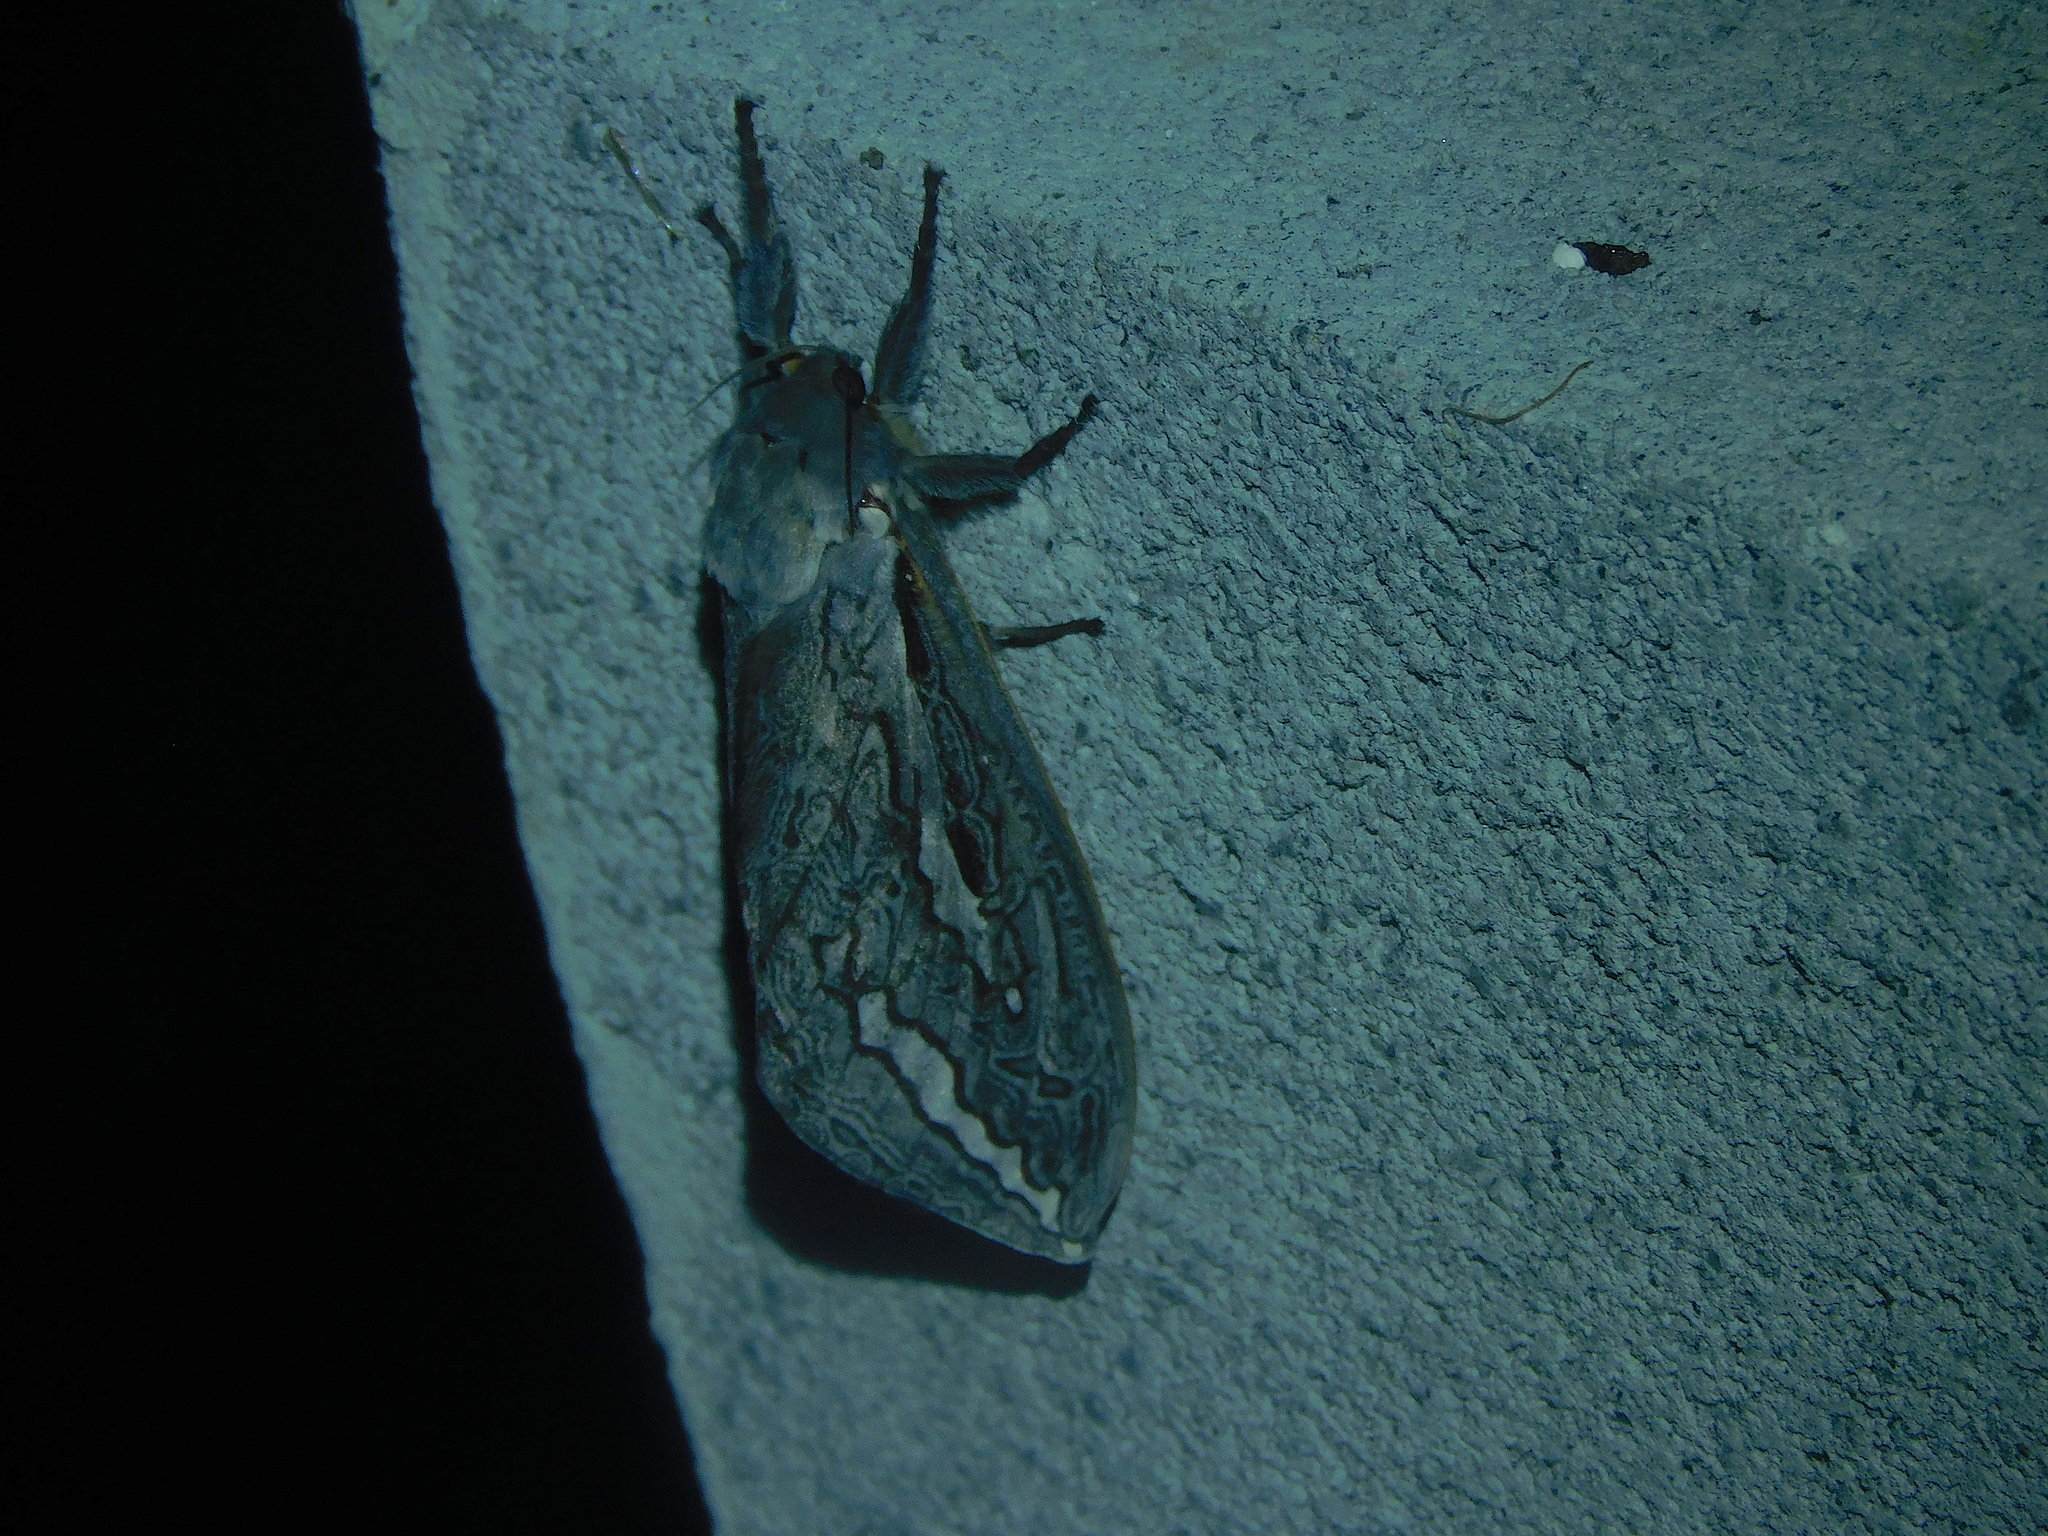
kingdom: Animalia
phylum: Arthropoda
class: Insecta
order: Lepidoptera
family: Hepialidae
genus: Abantiades
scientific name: Abantiades latipennis
